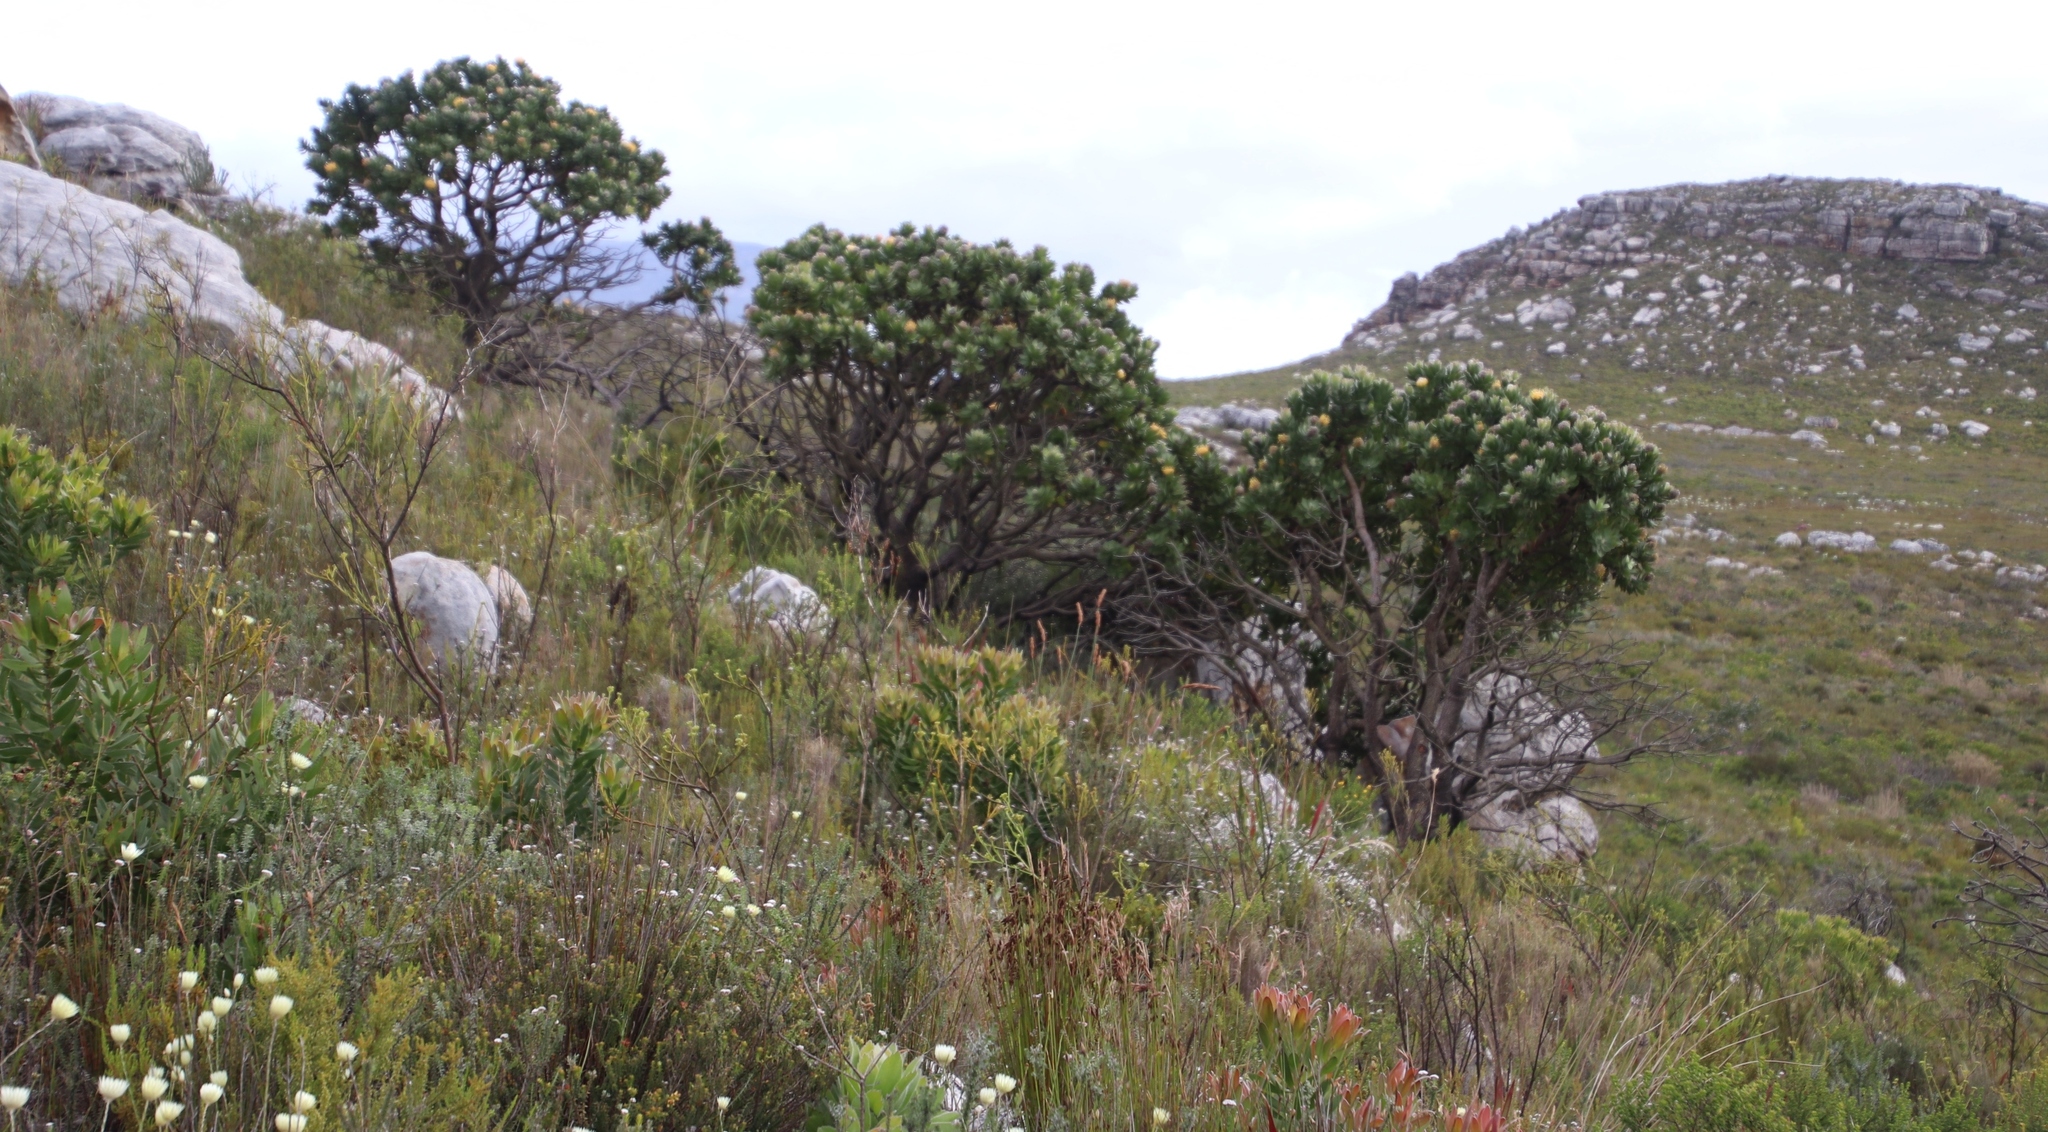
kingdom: Plantae
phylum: Tracheophyta
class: Magnoliopsida
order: Proteales
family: Proteaceae
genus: Leucospermum
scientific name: Leucospermum conocarpodendron
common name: Tree pincushion
